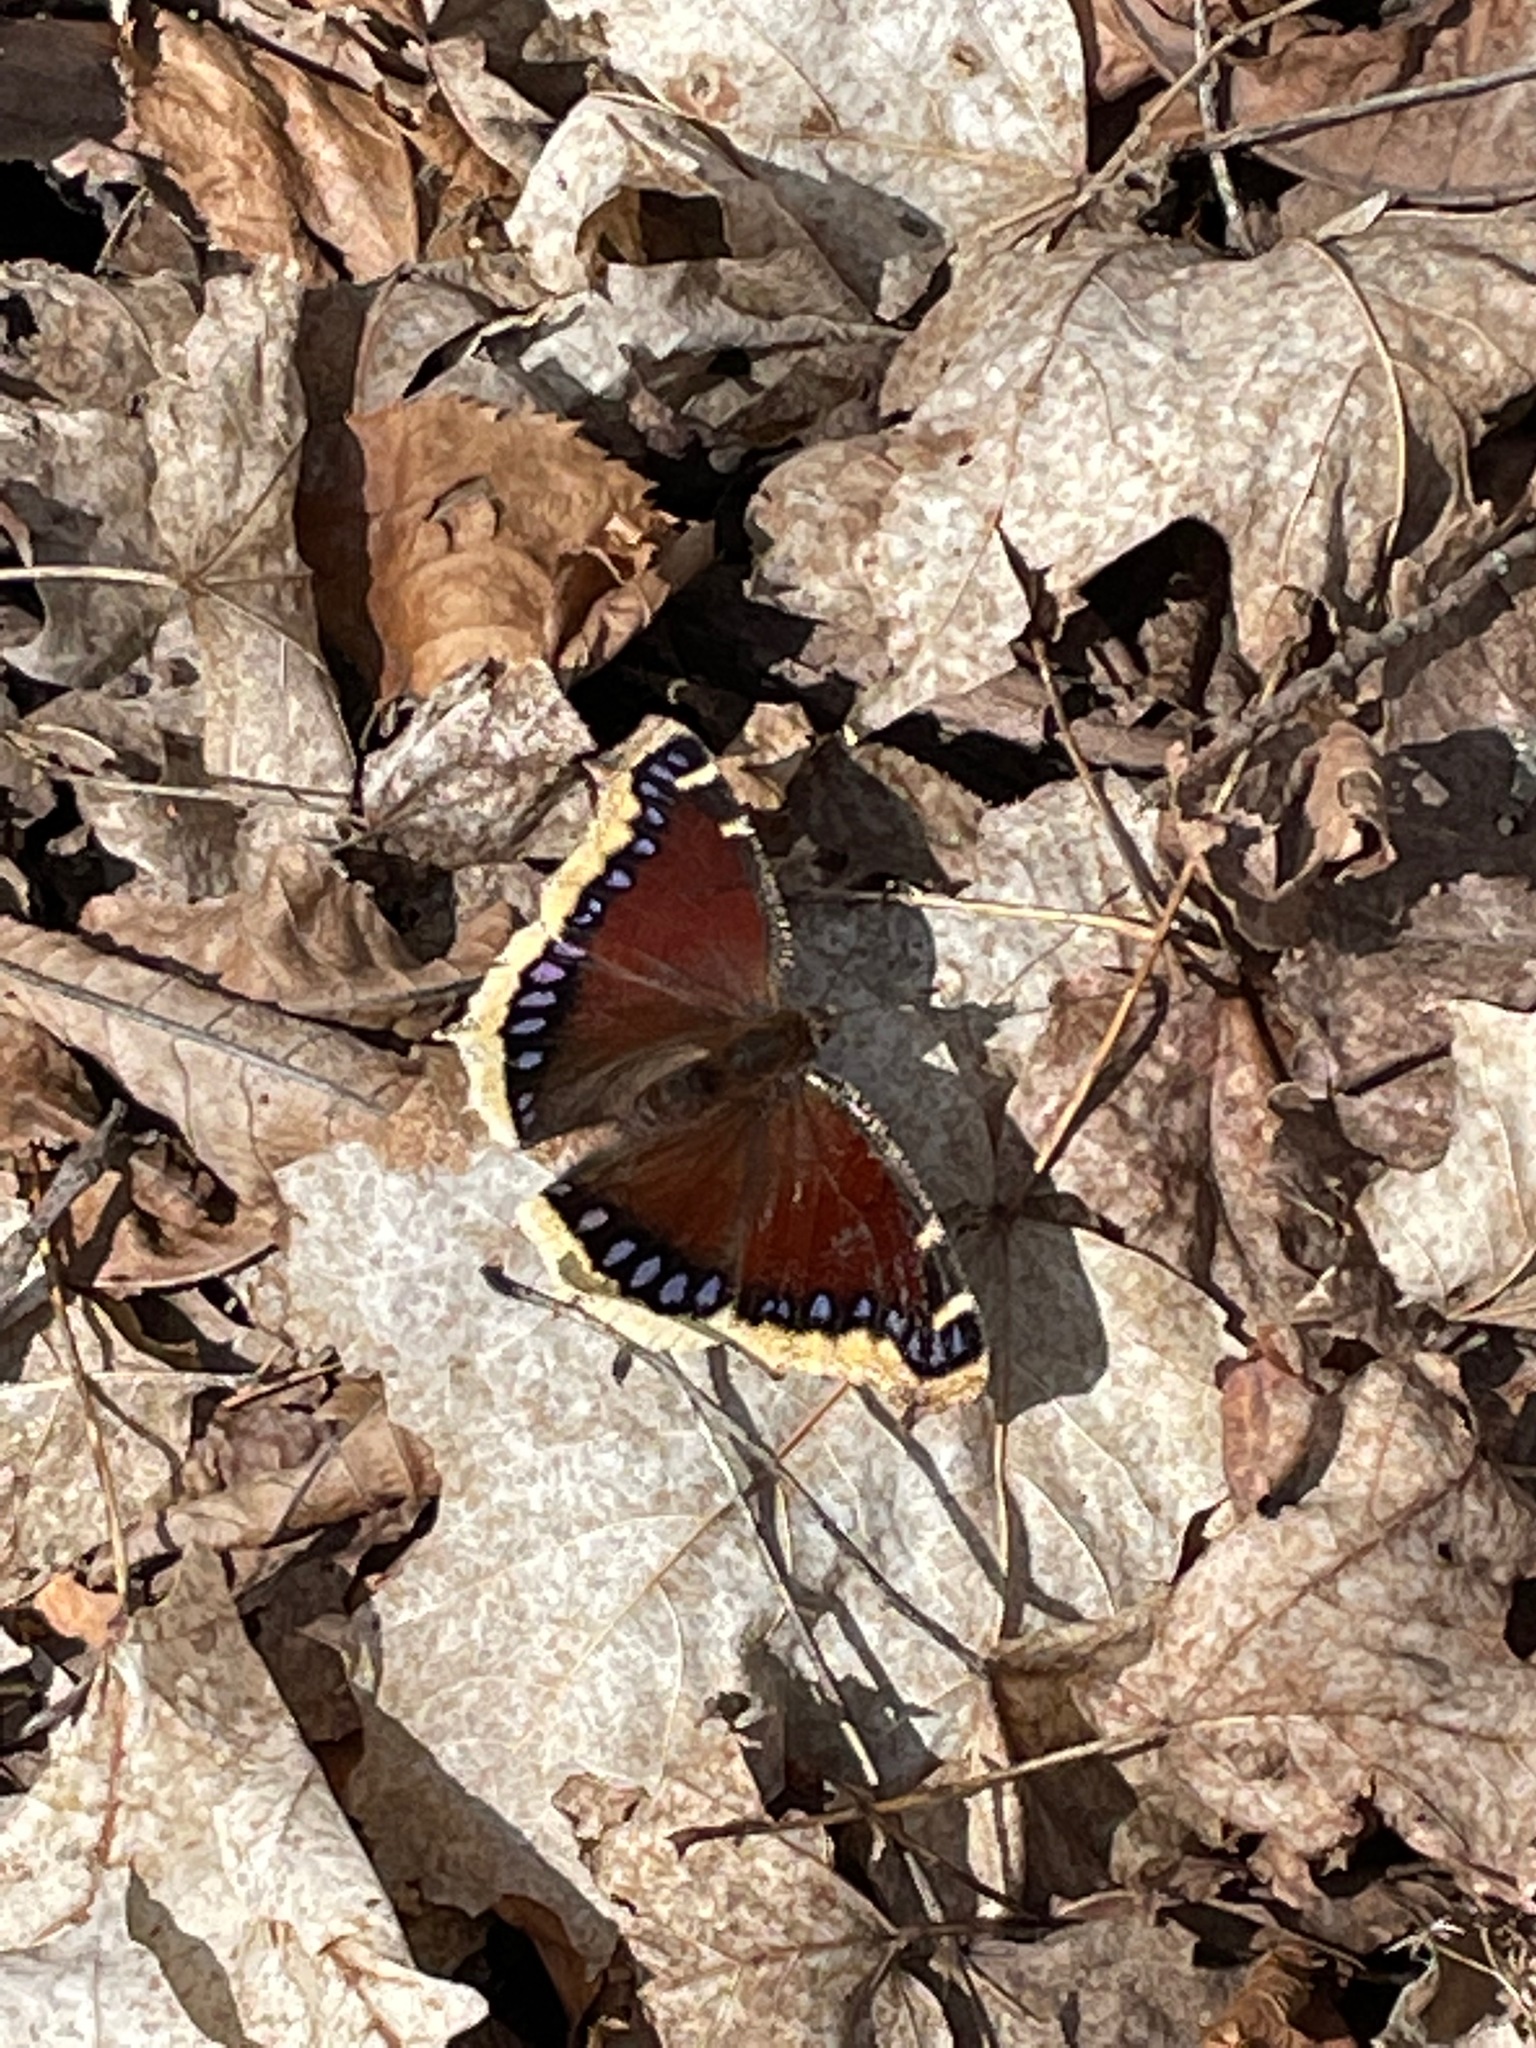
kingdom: Animalia
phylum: Arthropoda
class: Insecta
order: Lepidoptera
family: Nymphalidae
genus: Nymphalis
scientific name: Nymphalis antiopa
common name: Camberwell beauty
